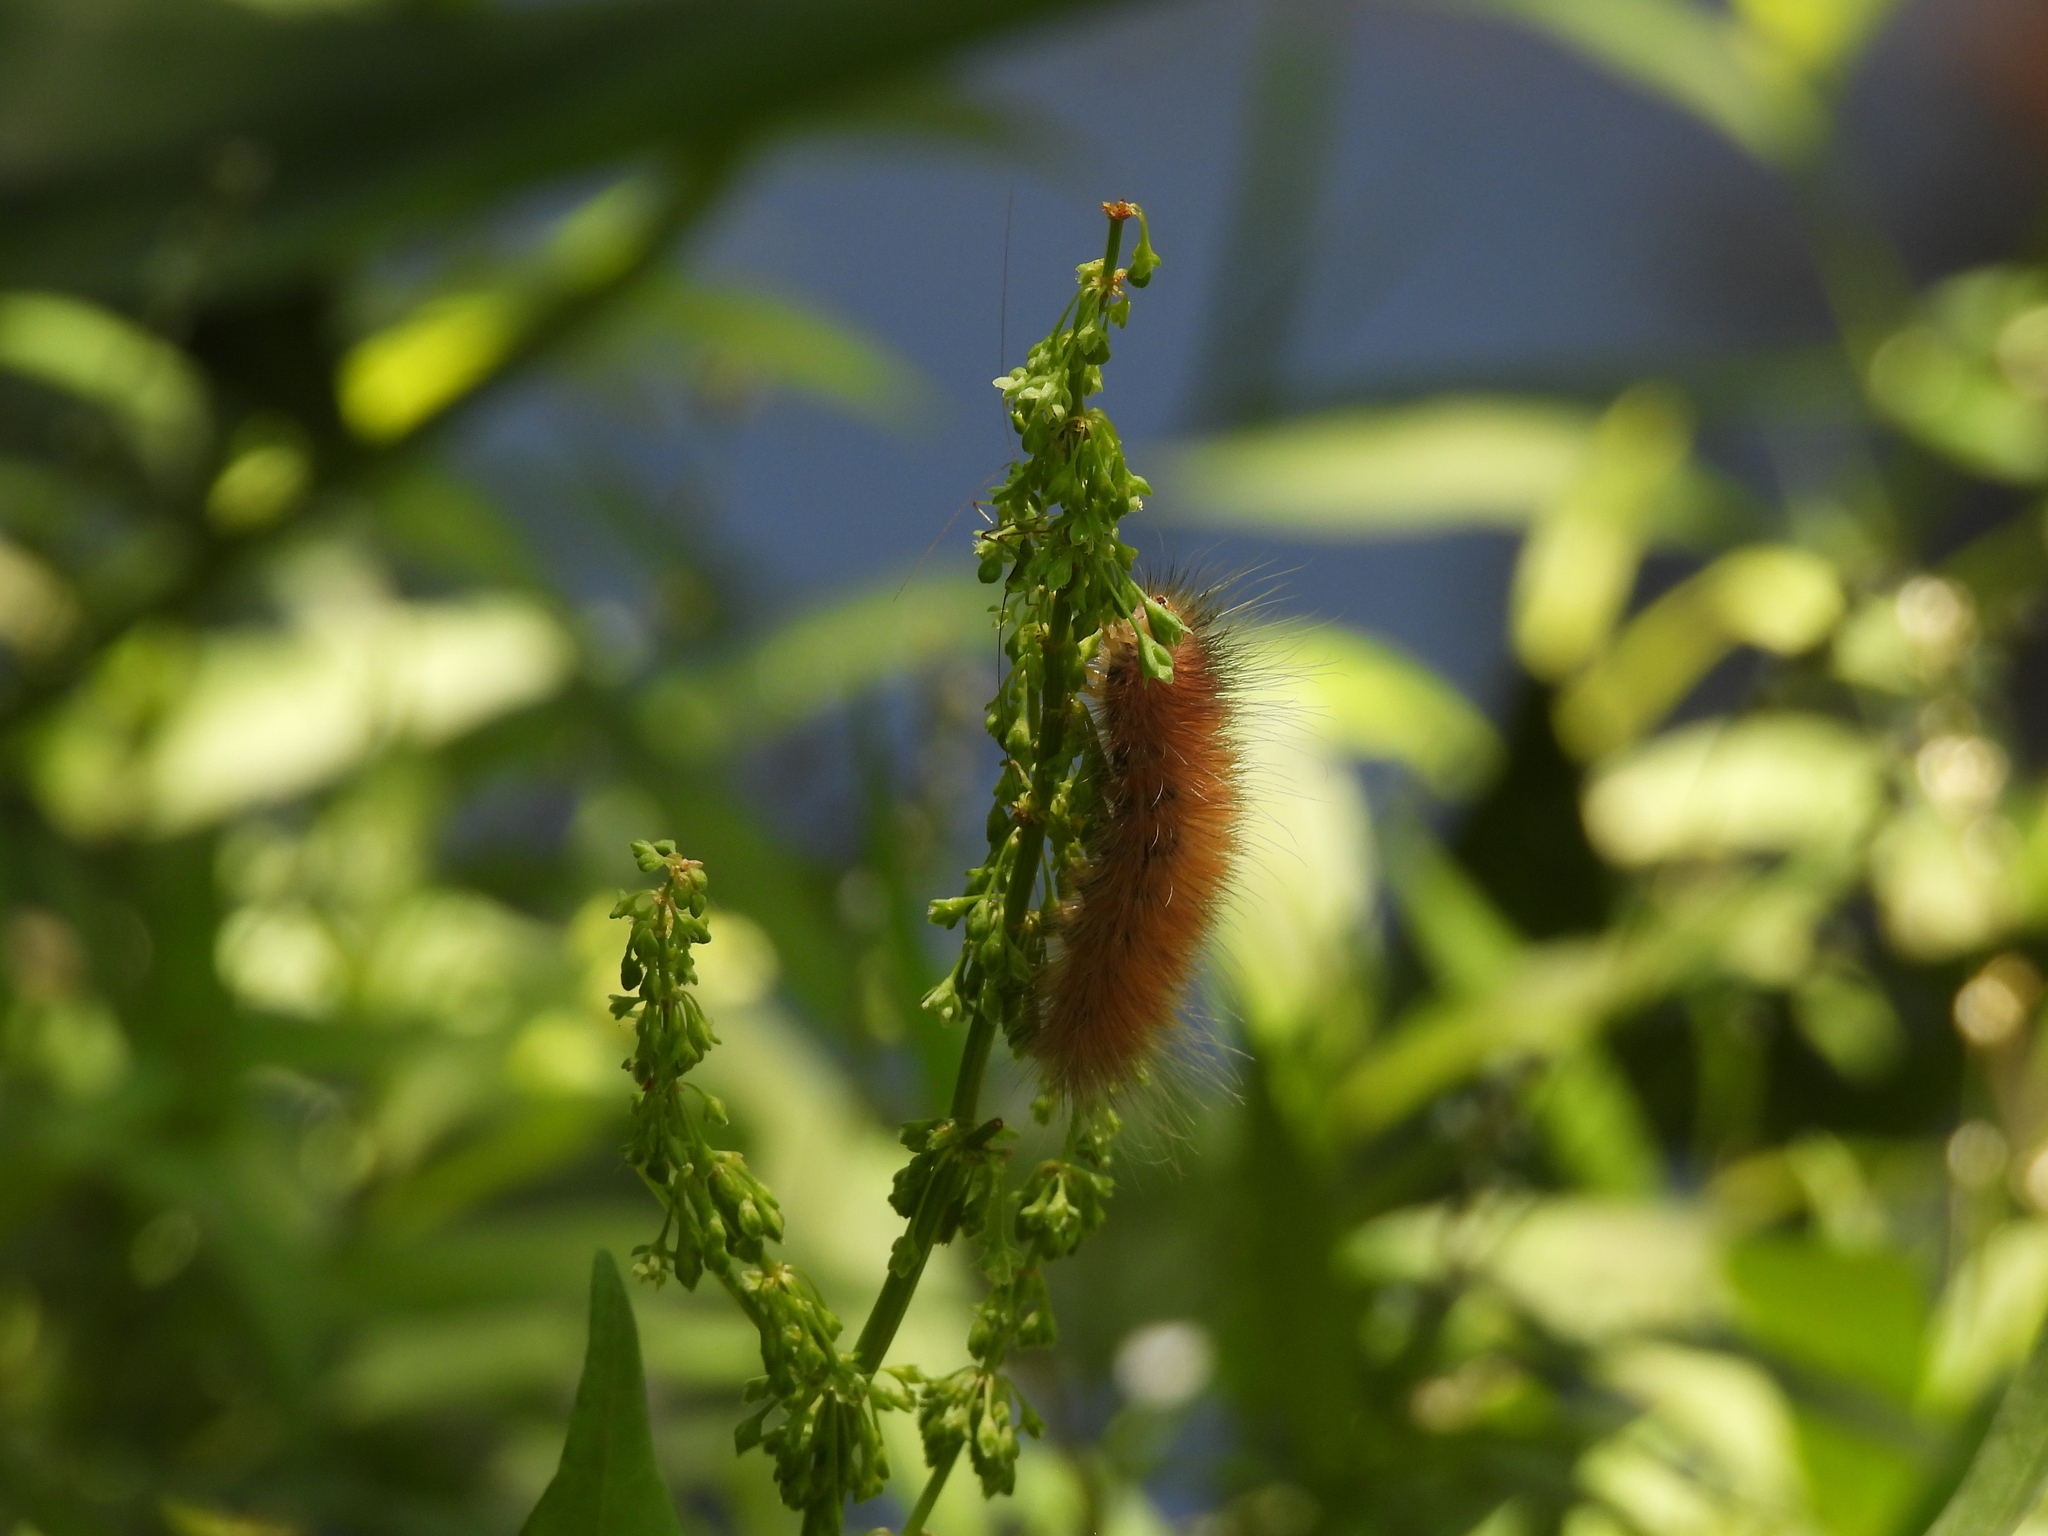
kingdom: Animalia
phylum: Arthropoda
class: Insecta
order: Lepidoptera
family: Erebidae
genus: Spilosoma
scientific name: Spilosoma virginica
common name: Virginia tiger moth
